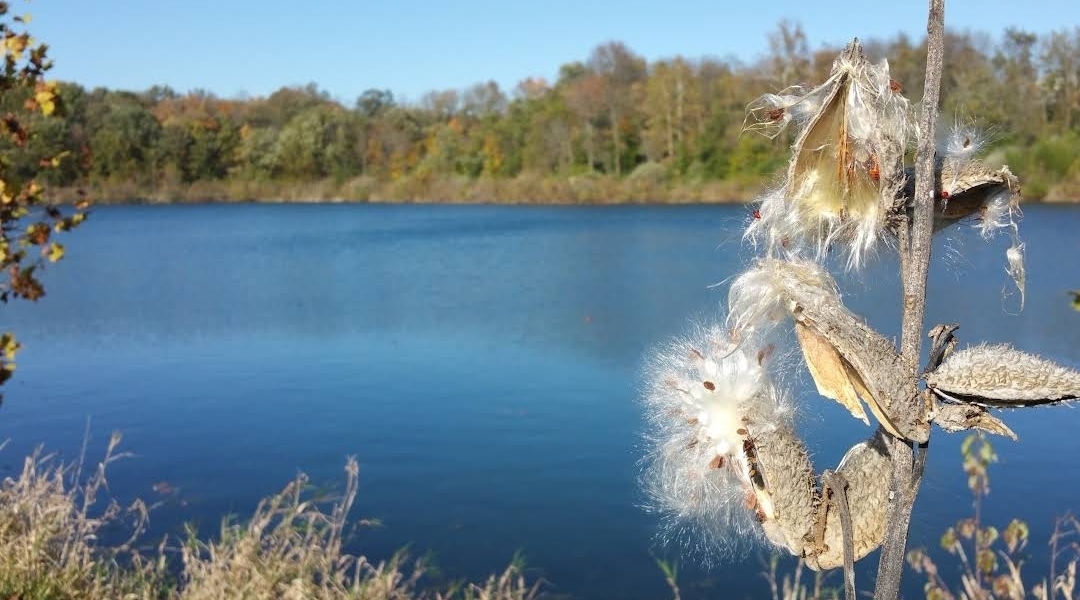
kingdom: Plantae
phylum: Tracheophyta
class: Magnoliopsida
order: Gentianales
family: Apocynaceae
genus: Asclepias
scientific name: Asclepias syriaca
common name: Common milkweed
